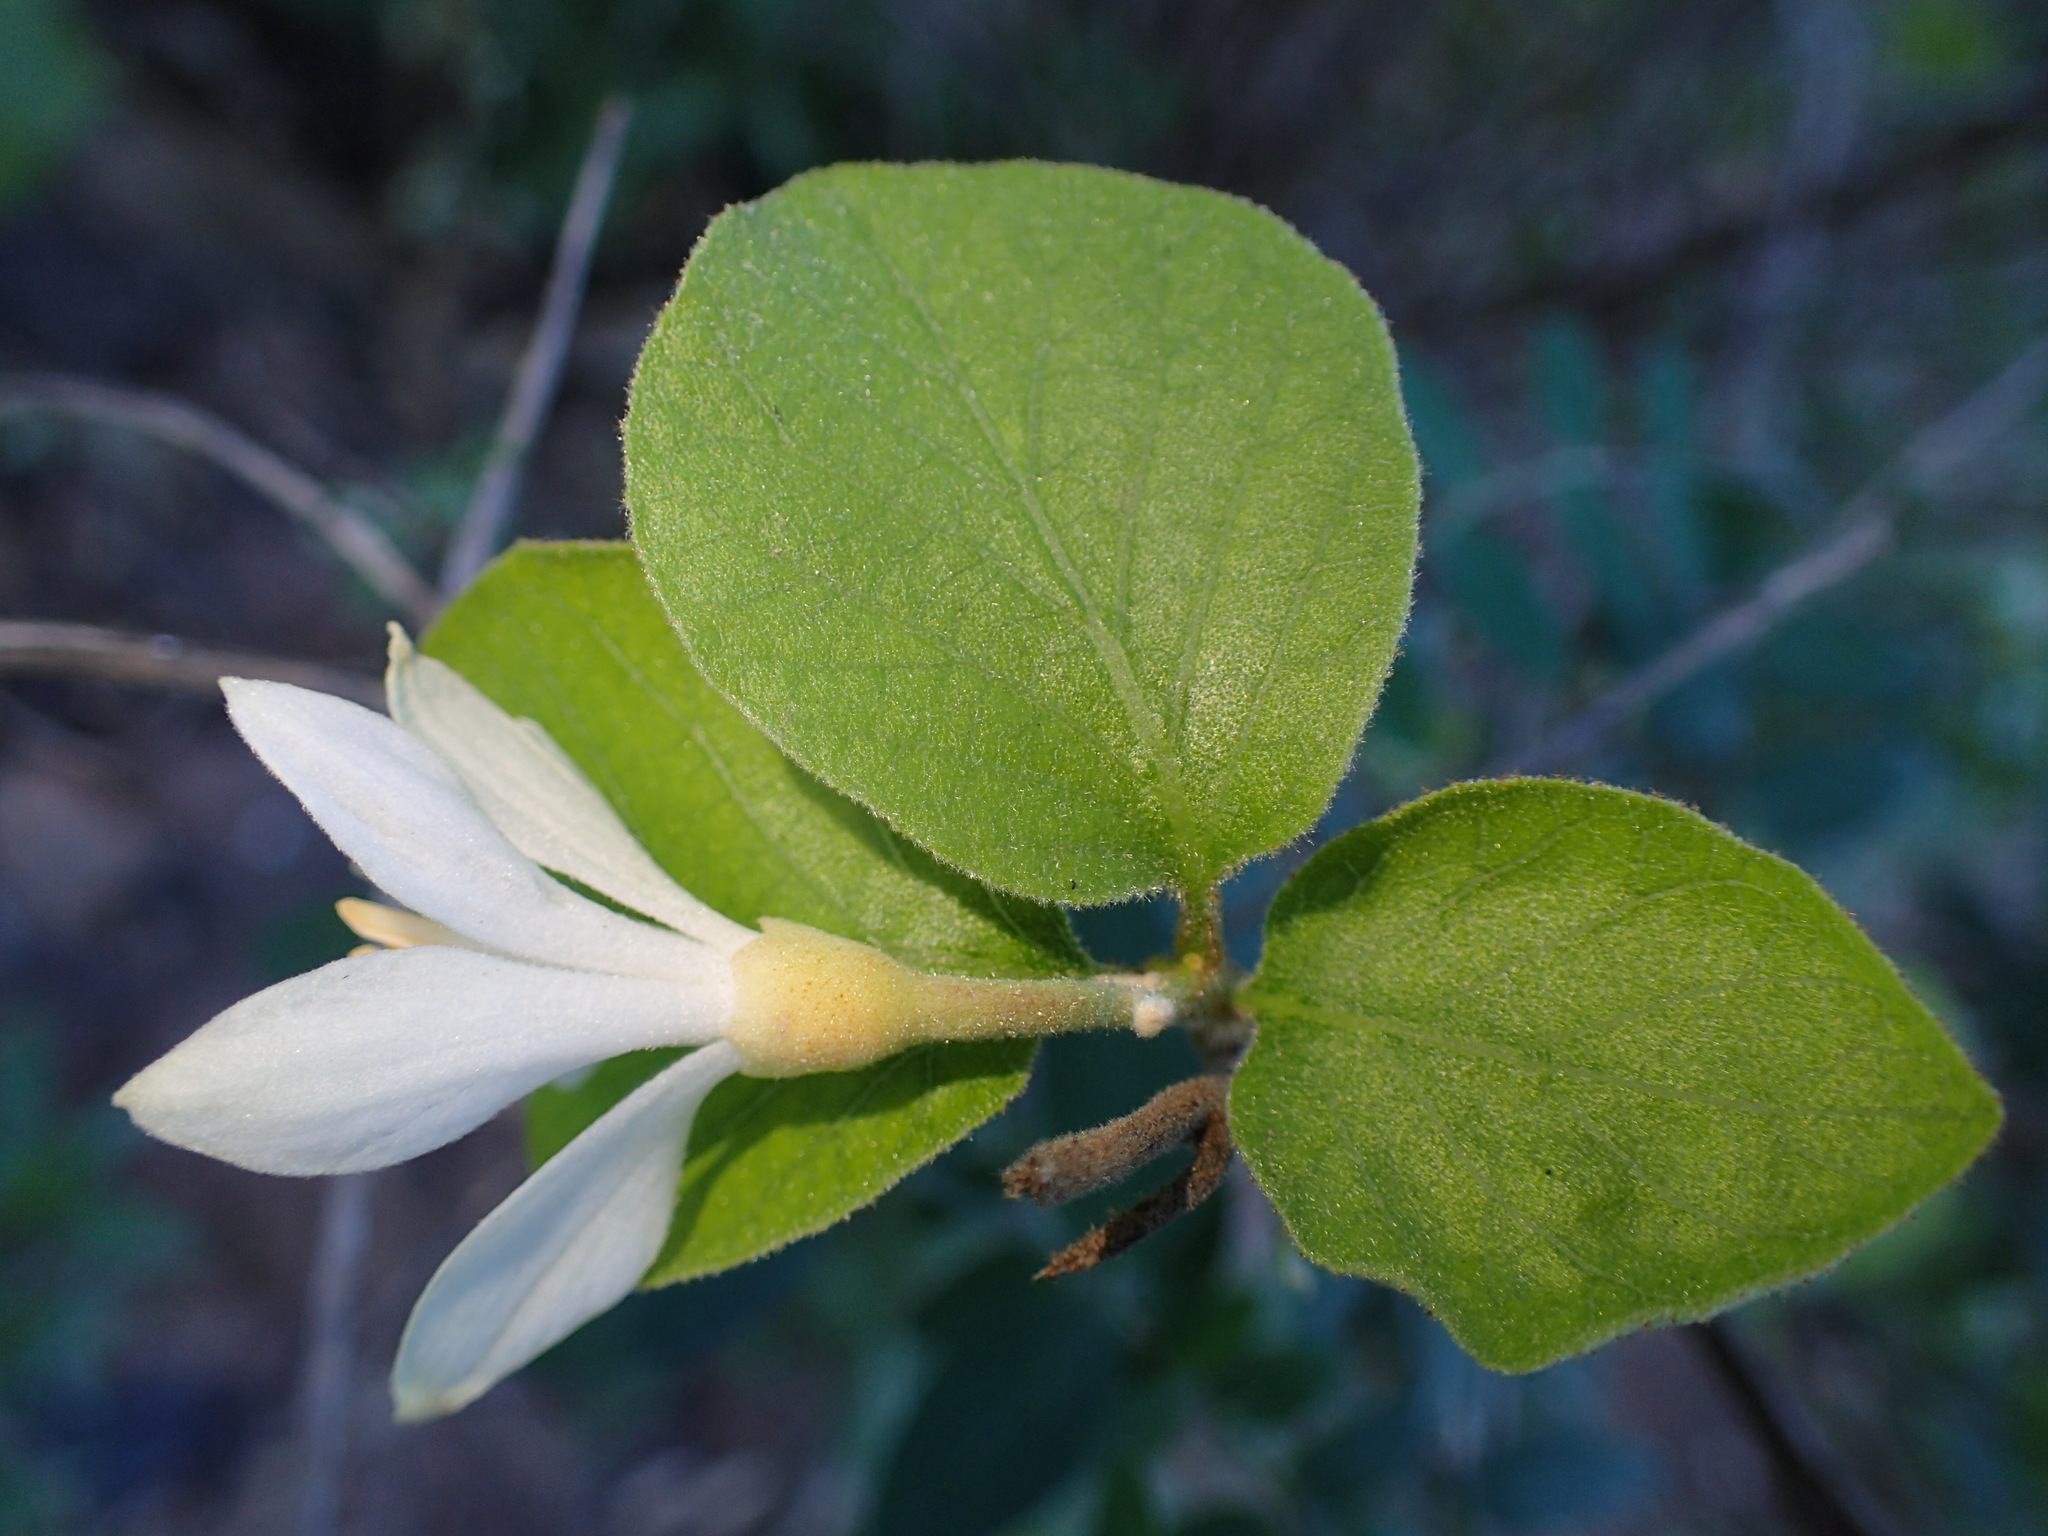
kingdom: Plantae
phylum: Tracheophyta
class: Magnoliopsida
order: Ericales
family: Styracaceae
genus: Styrax
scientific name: Styrax redivivus
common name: California styrax
